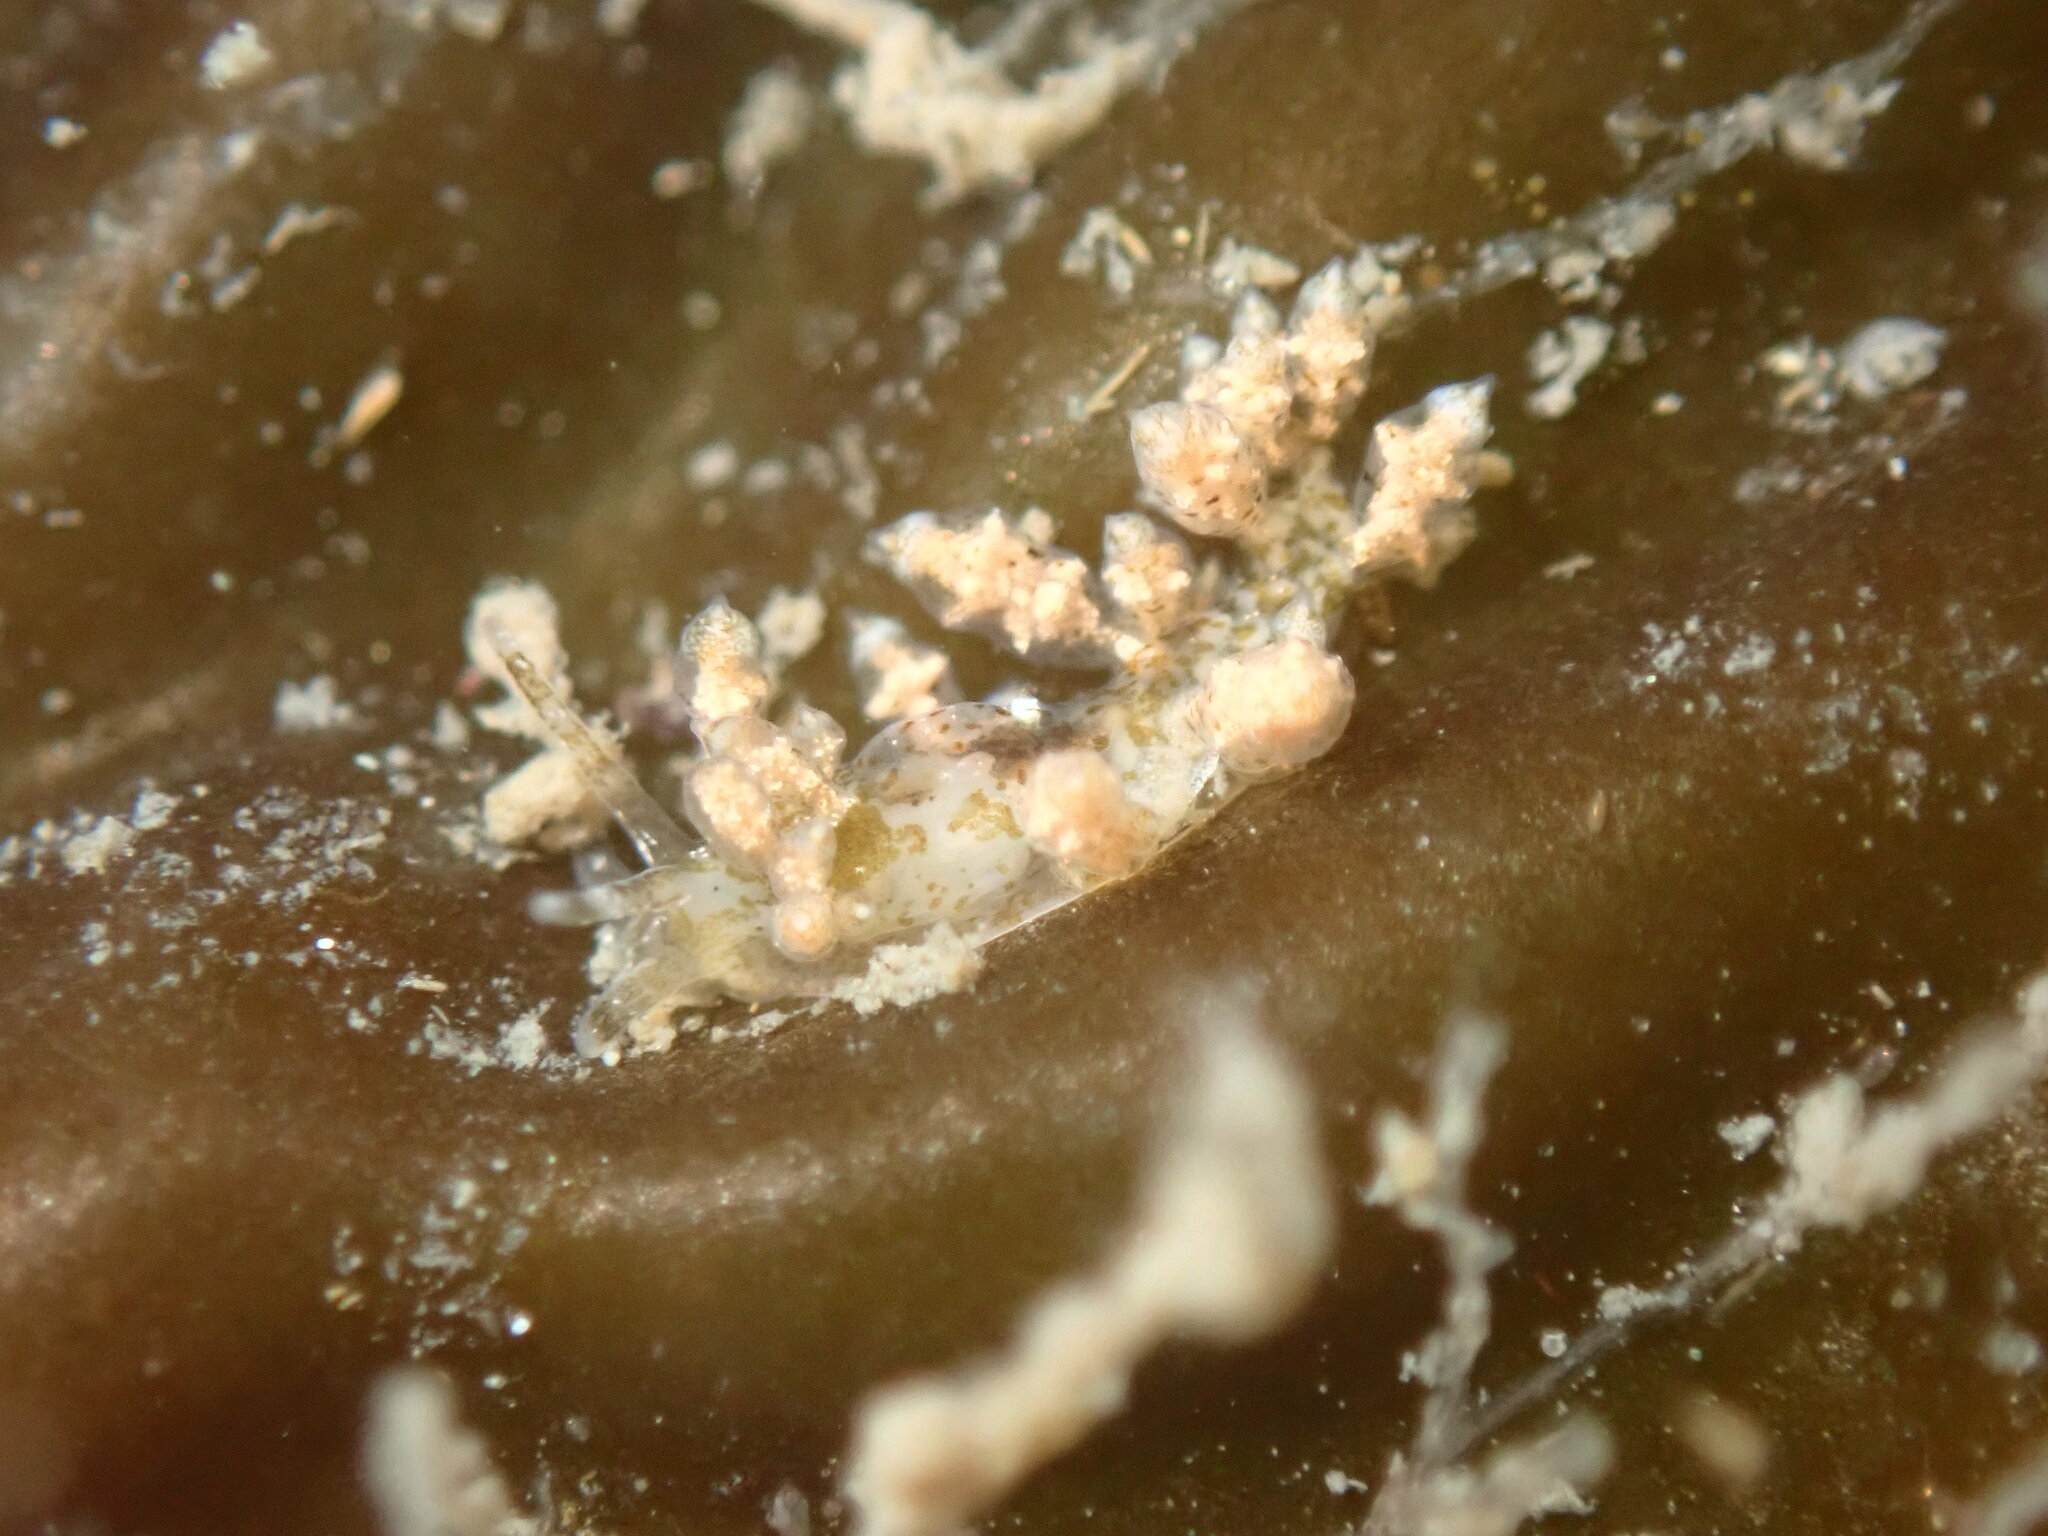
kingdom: Animalia
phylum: Mollusca
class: Gastropoda
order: Nudibranchia
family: Eubranchidae
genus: Eubranchus
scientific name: Eubranchus rustyus
